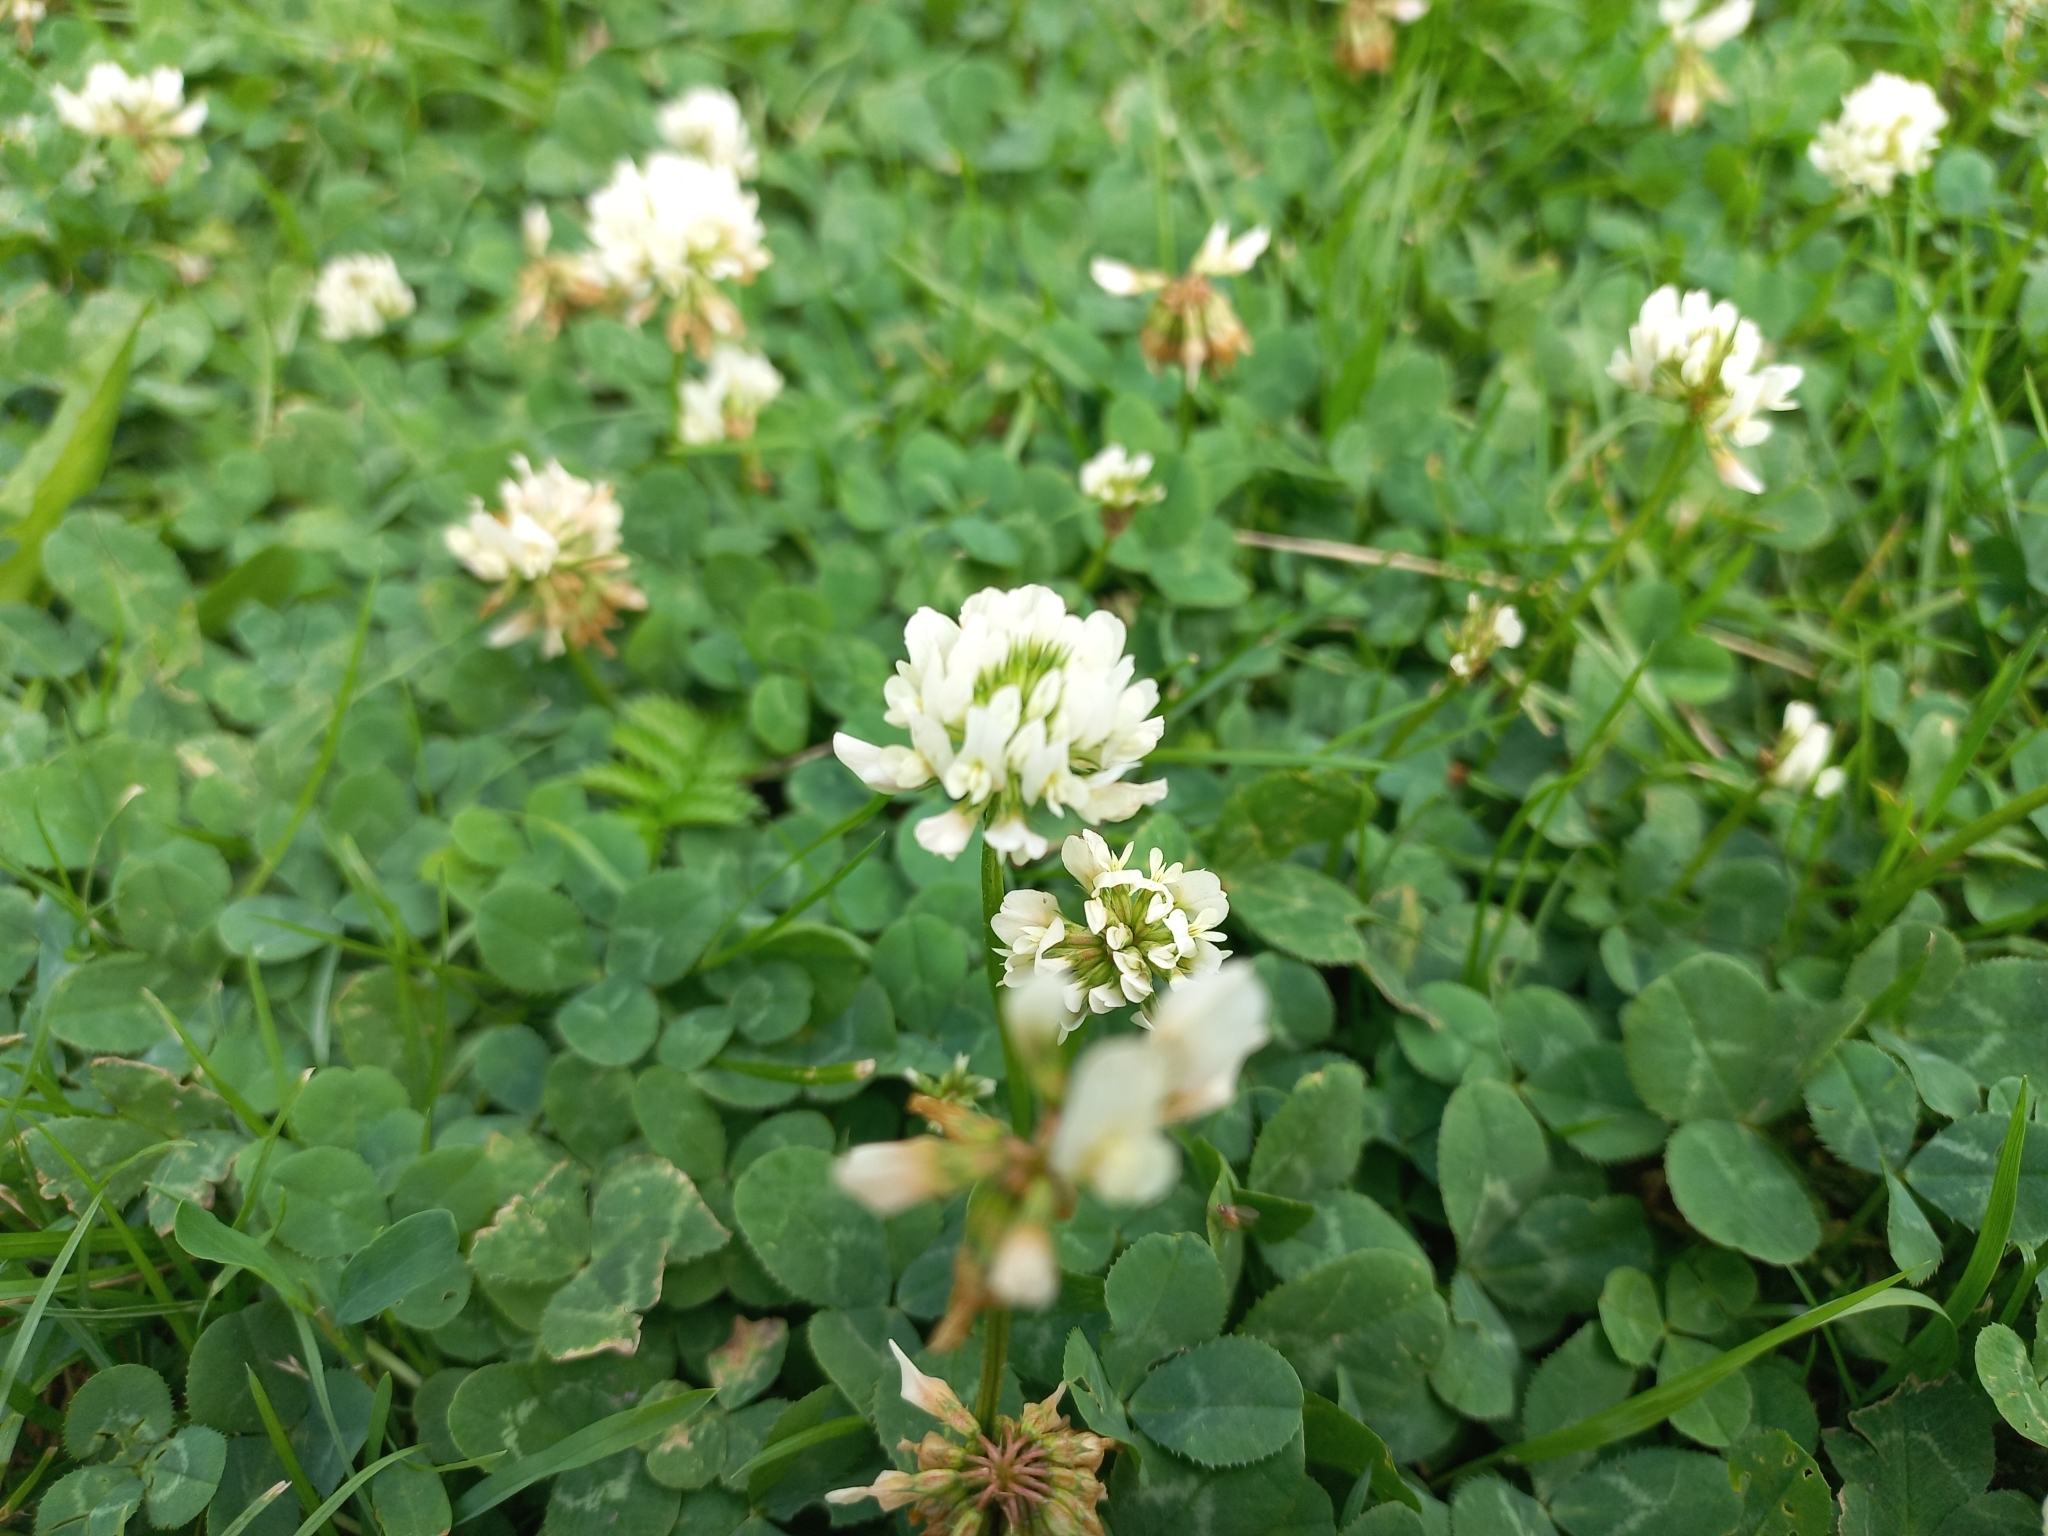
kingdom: Plantae
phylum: Tracheophyta
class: Magnoliopsida
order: Fabales
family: Fabaceae
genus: Trifolium
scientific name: Trifolium repens
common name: White clover
